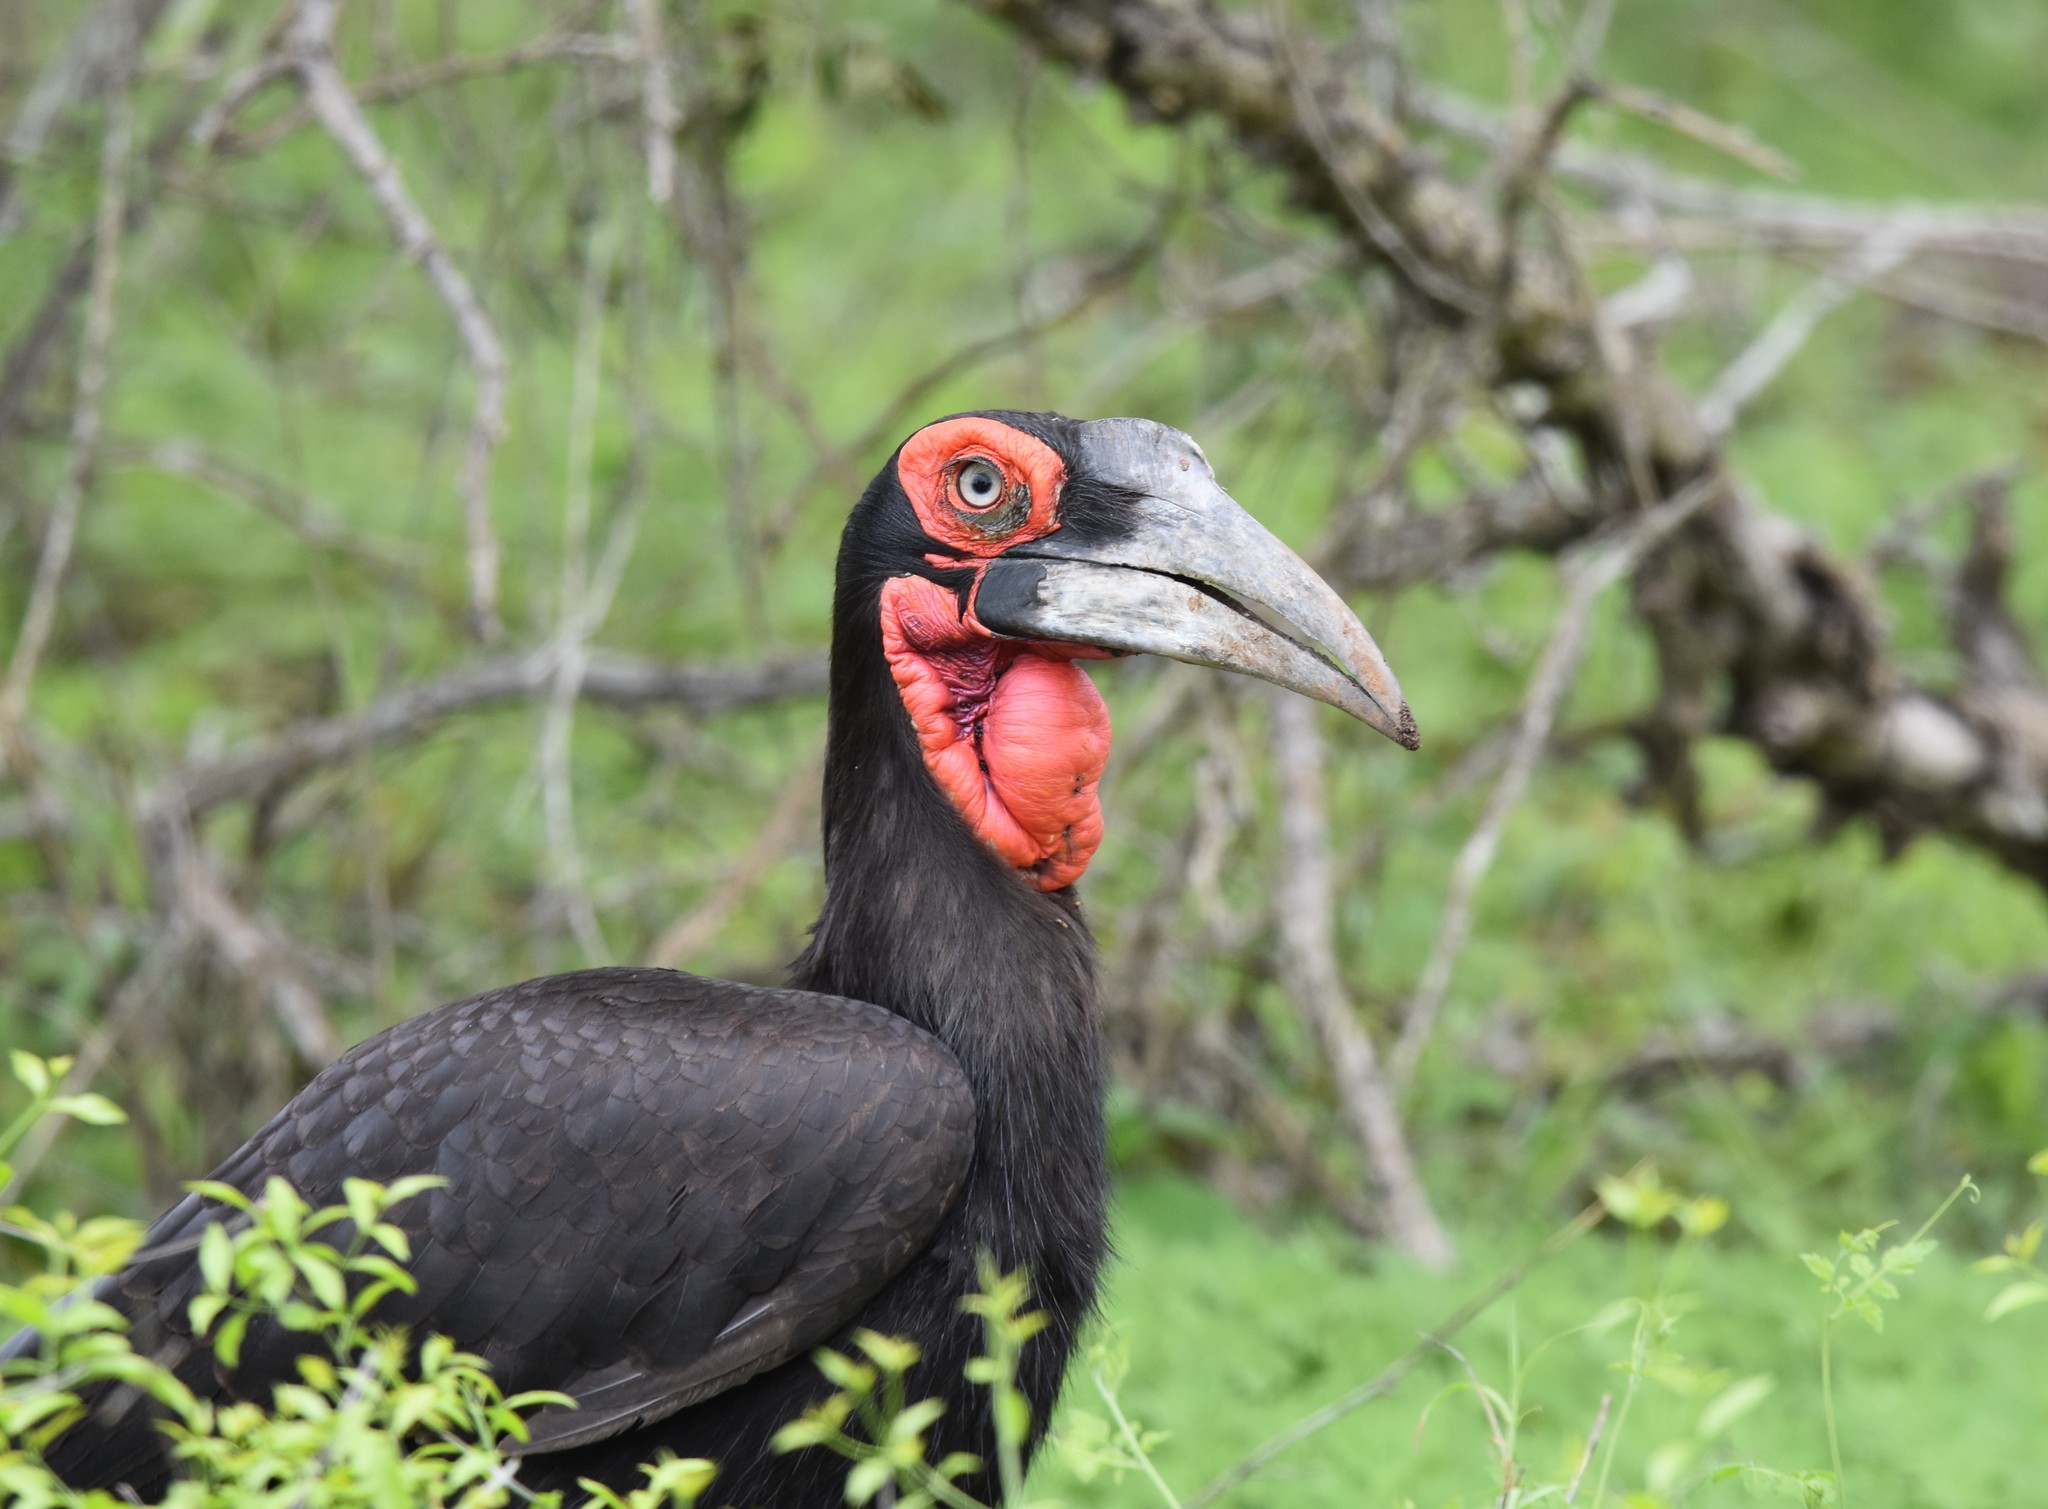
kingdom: Animalia
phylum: Chordata
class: Aves
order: Bucerotiformes
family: Bucorvidae
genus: Bucorvus
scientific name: Bucorvus leadbeateri
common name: Southern ground-hornbill
